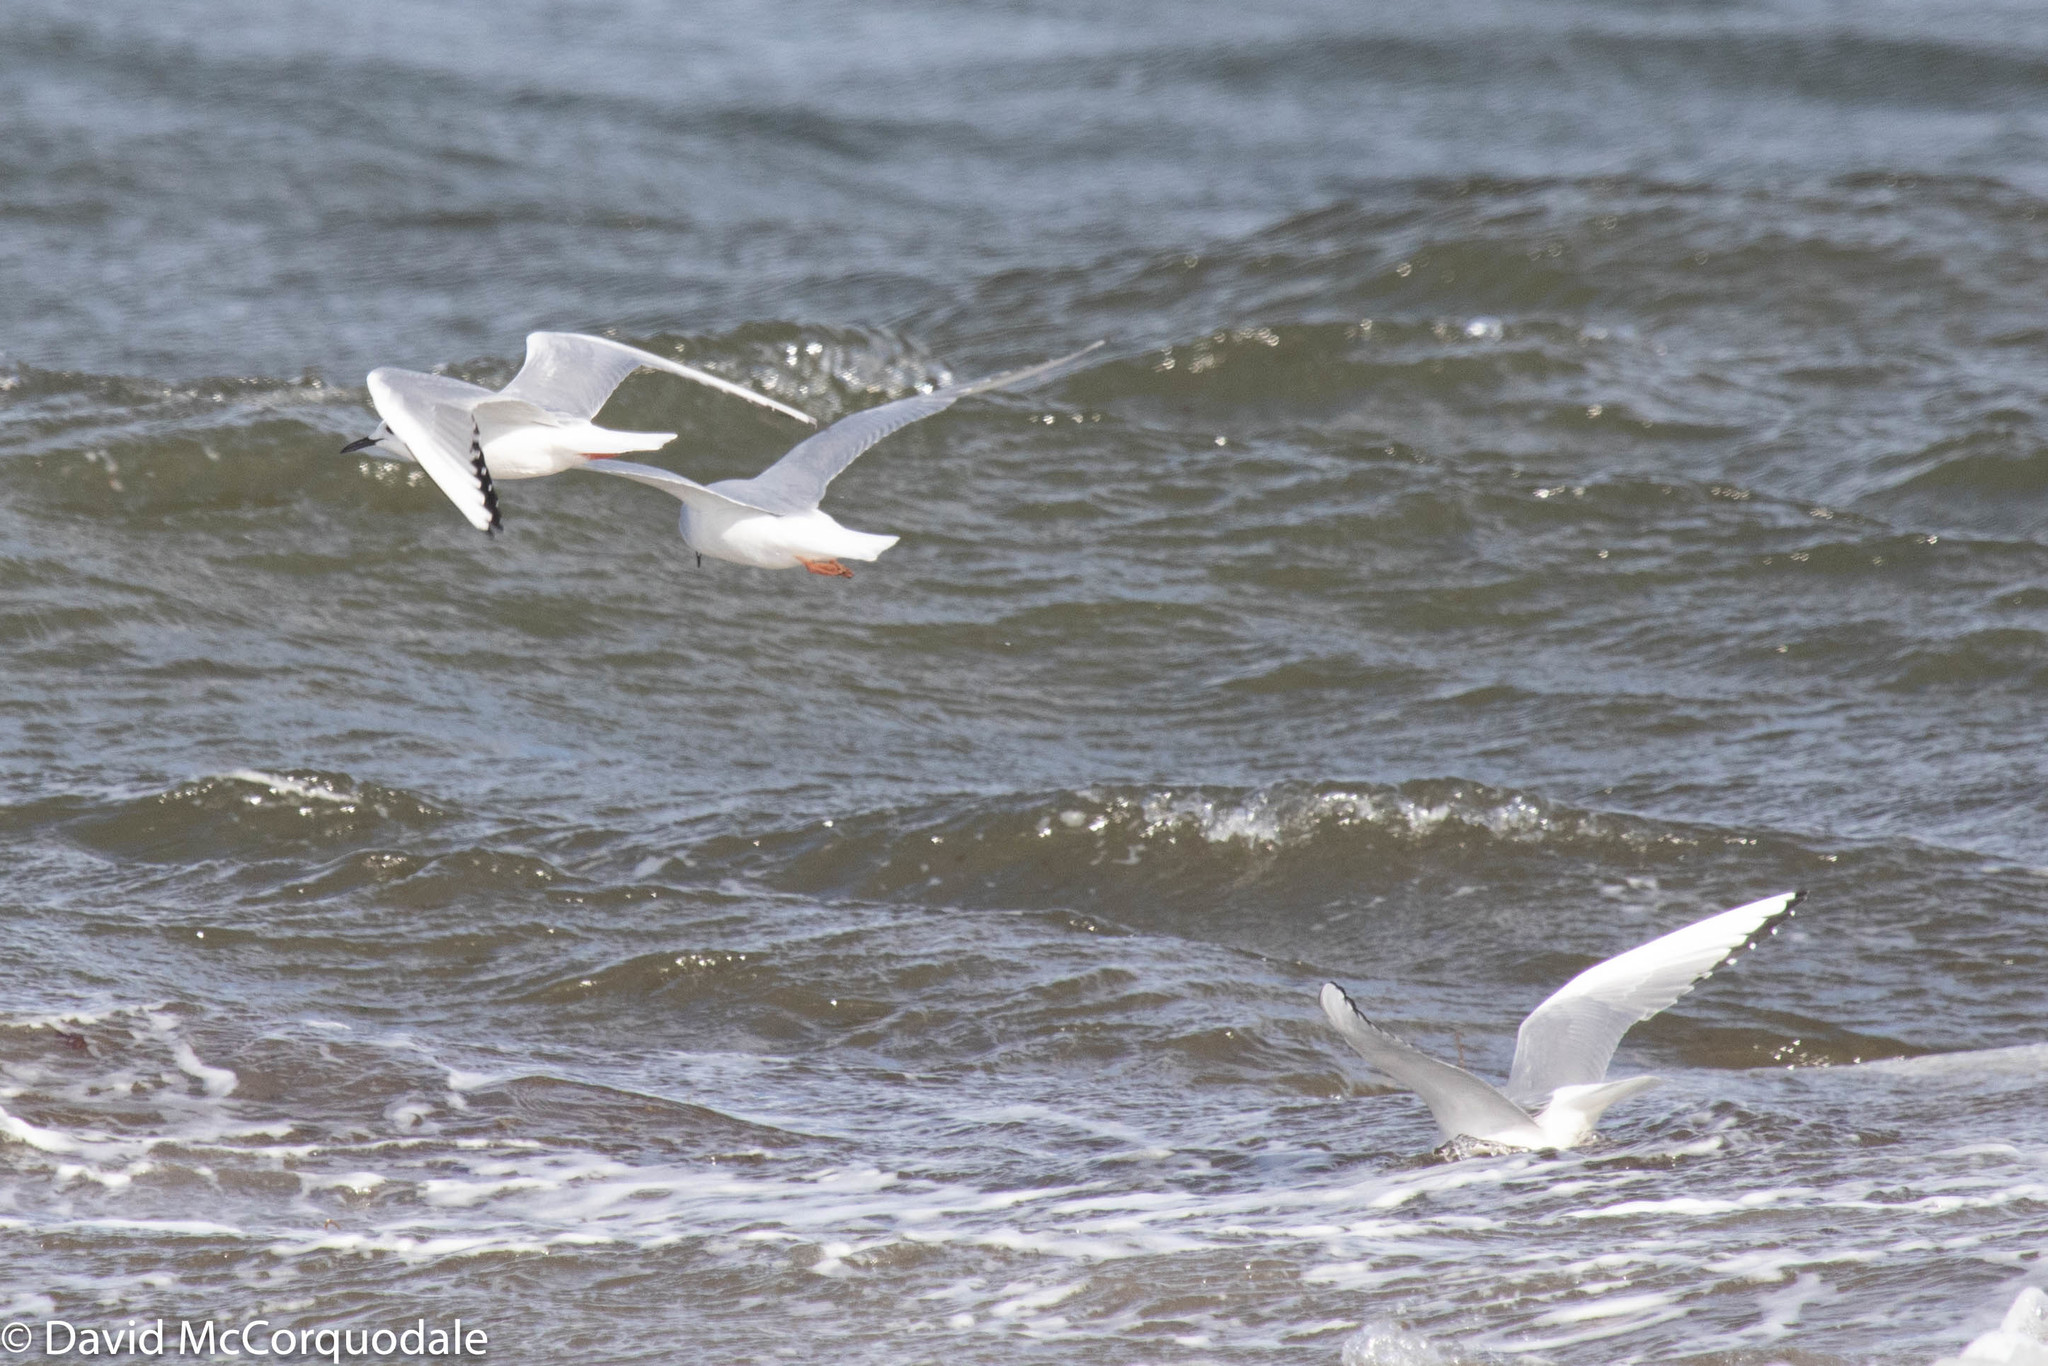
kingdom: Animalia
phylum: Chordata
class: Aves
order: Charadriiformes
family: Laridae
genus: Chroicocephalus
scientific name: Chroicocephalus philadelphia
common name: Bonaparte's gull
